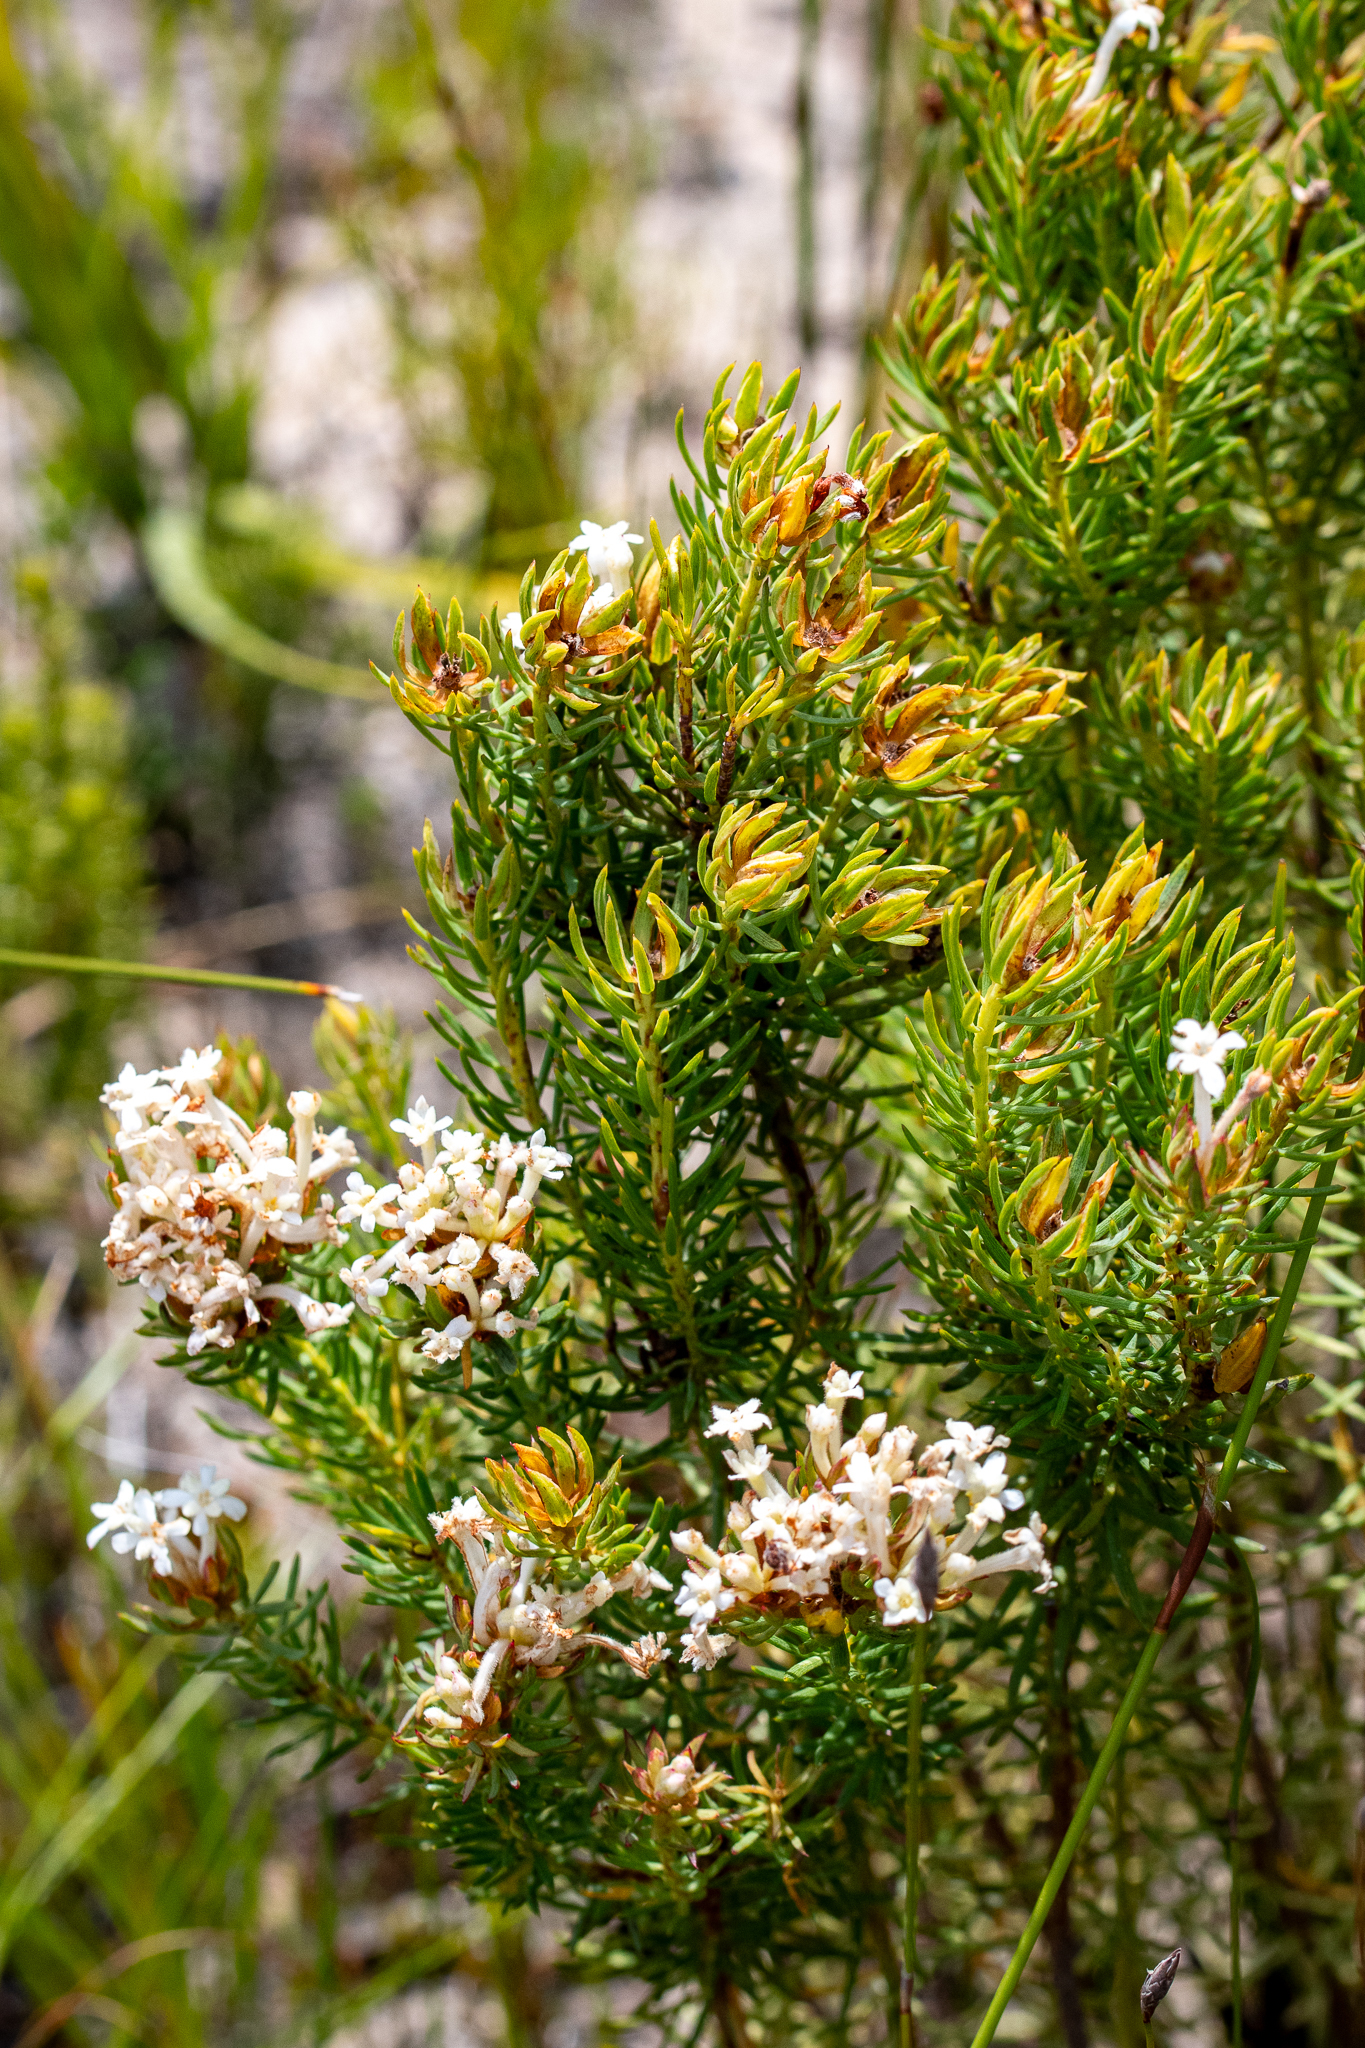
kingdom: Plantae
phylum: Tracheophyta
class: Magnoliopsida
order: Malvales
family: Thymelaeaceae
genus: Gnidia
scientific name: Gnidia pinifolia
